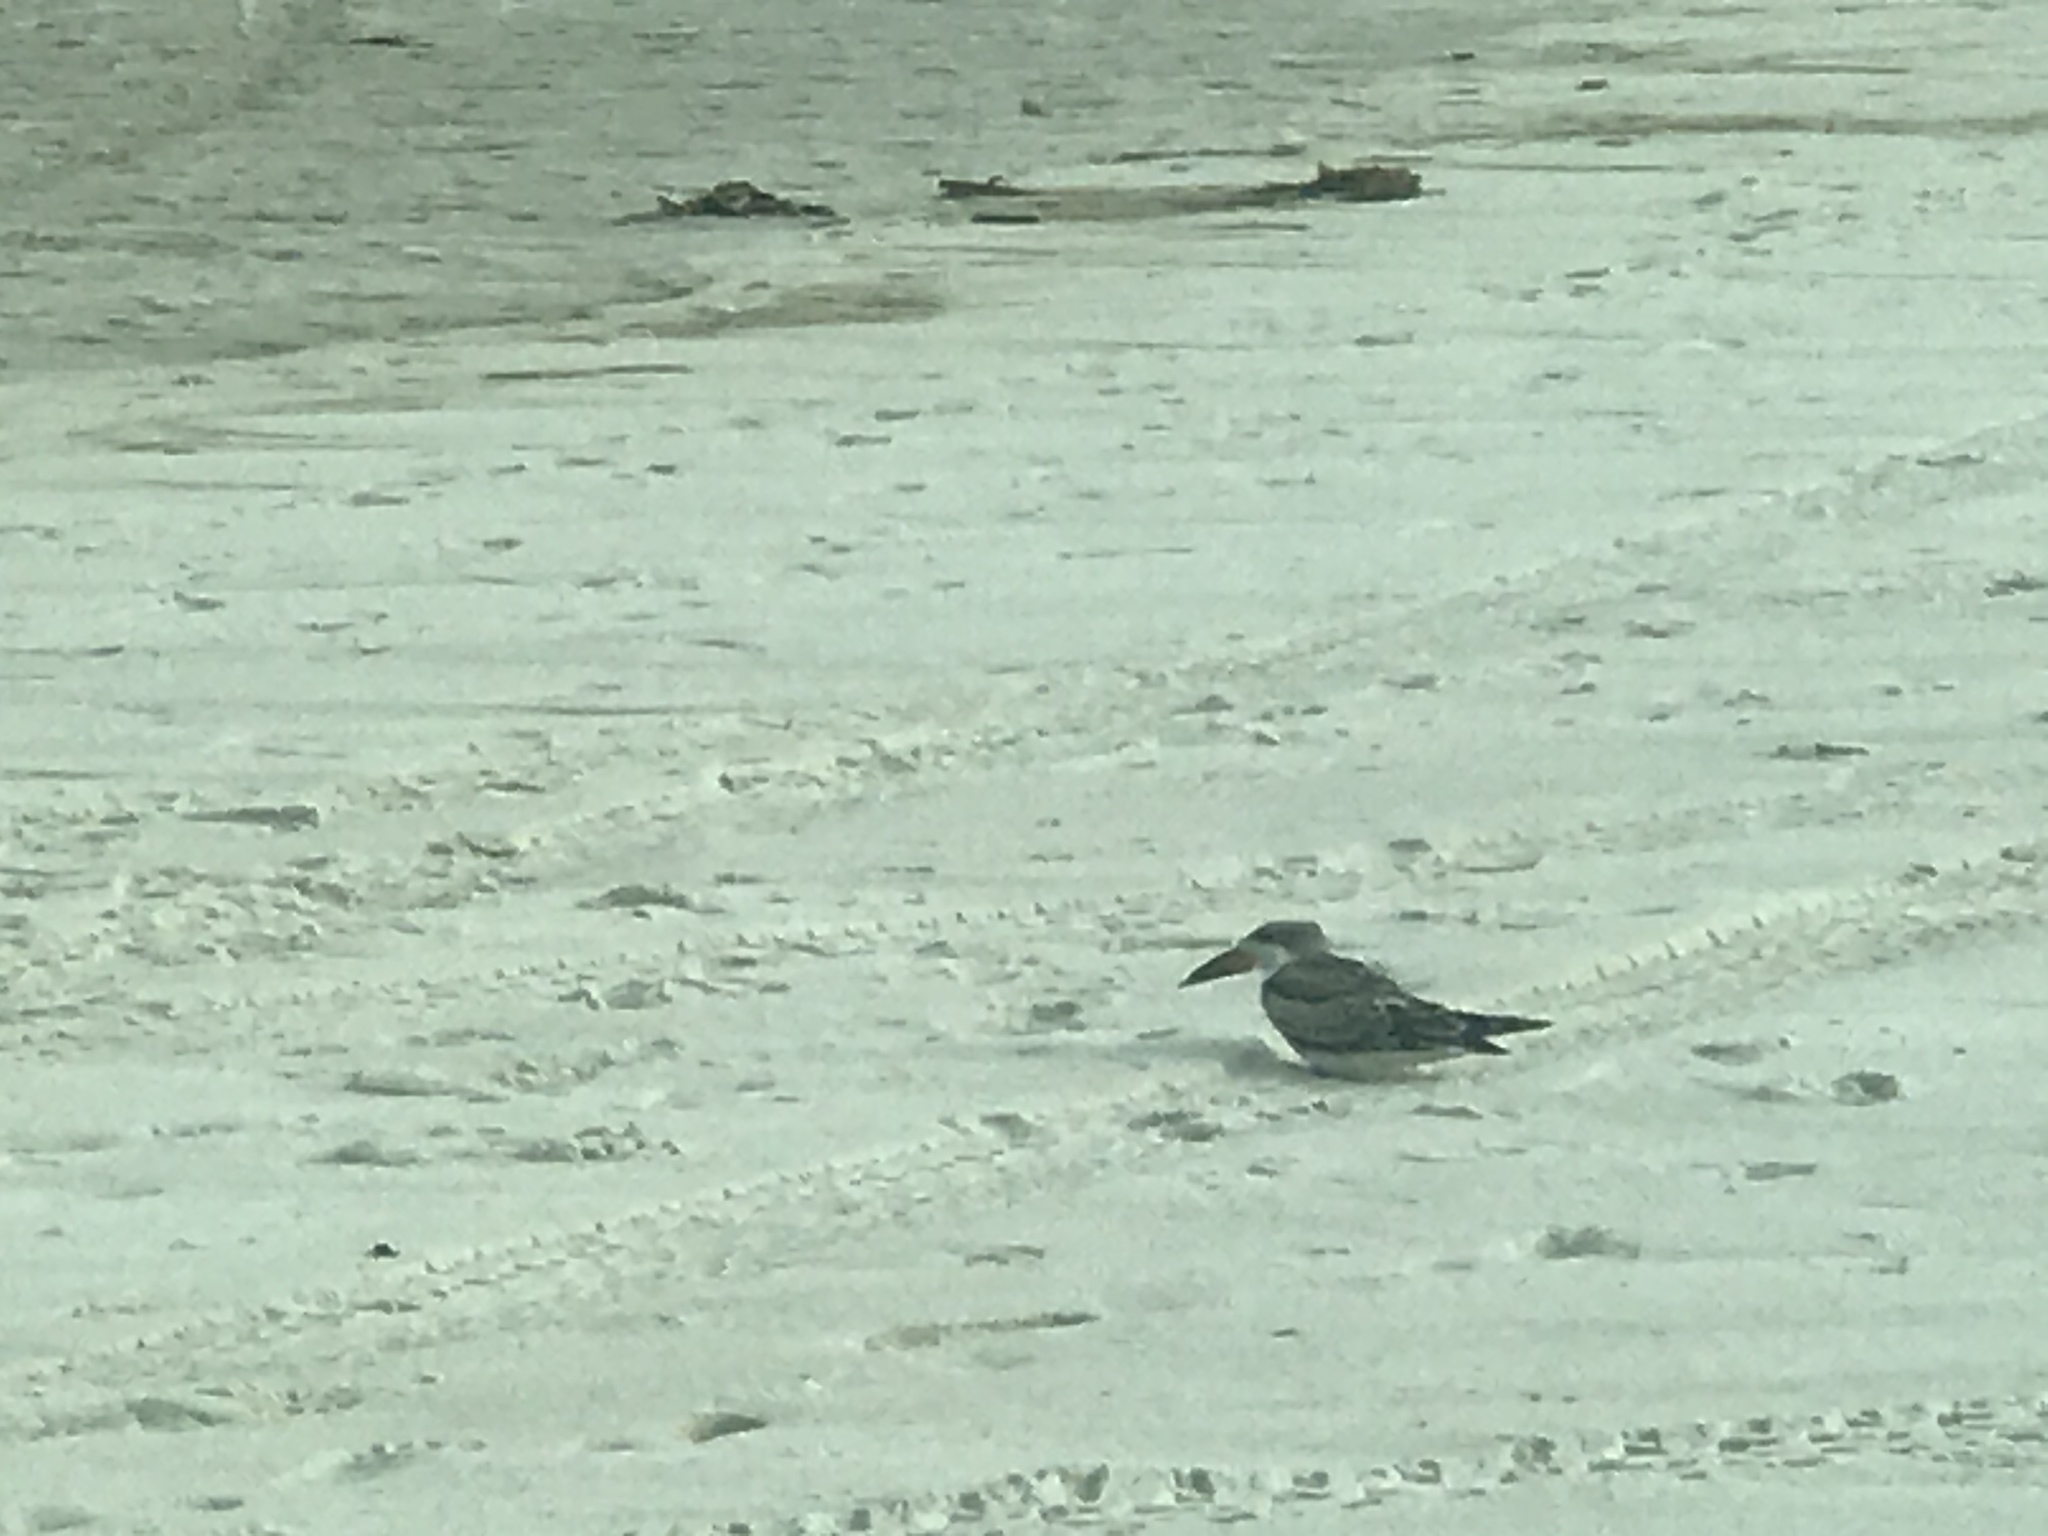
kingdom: Animalia
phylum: Chordata
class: Aves
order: Charadriiformes
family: Laridae
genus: Rynchops
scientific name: Rynchops niger
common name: Black skimmer
